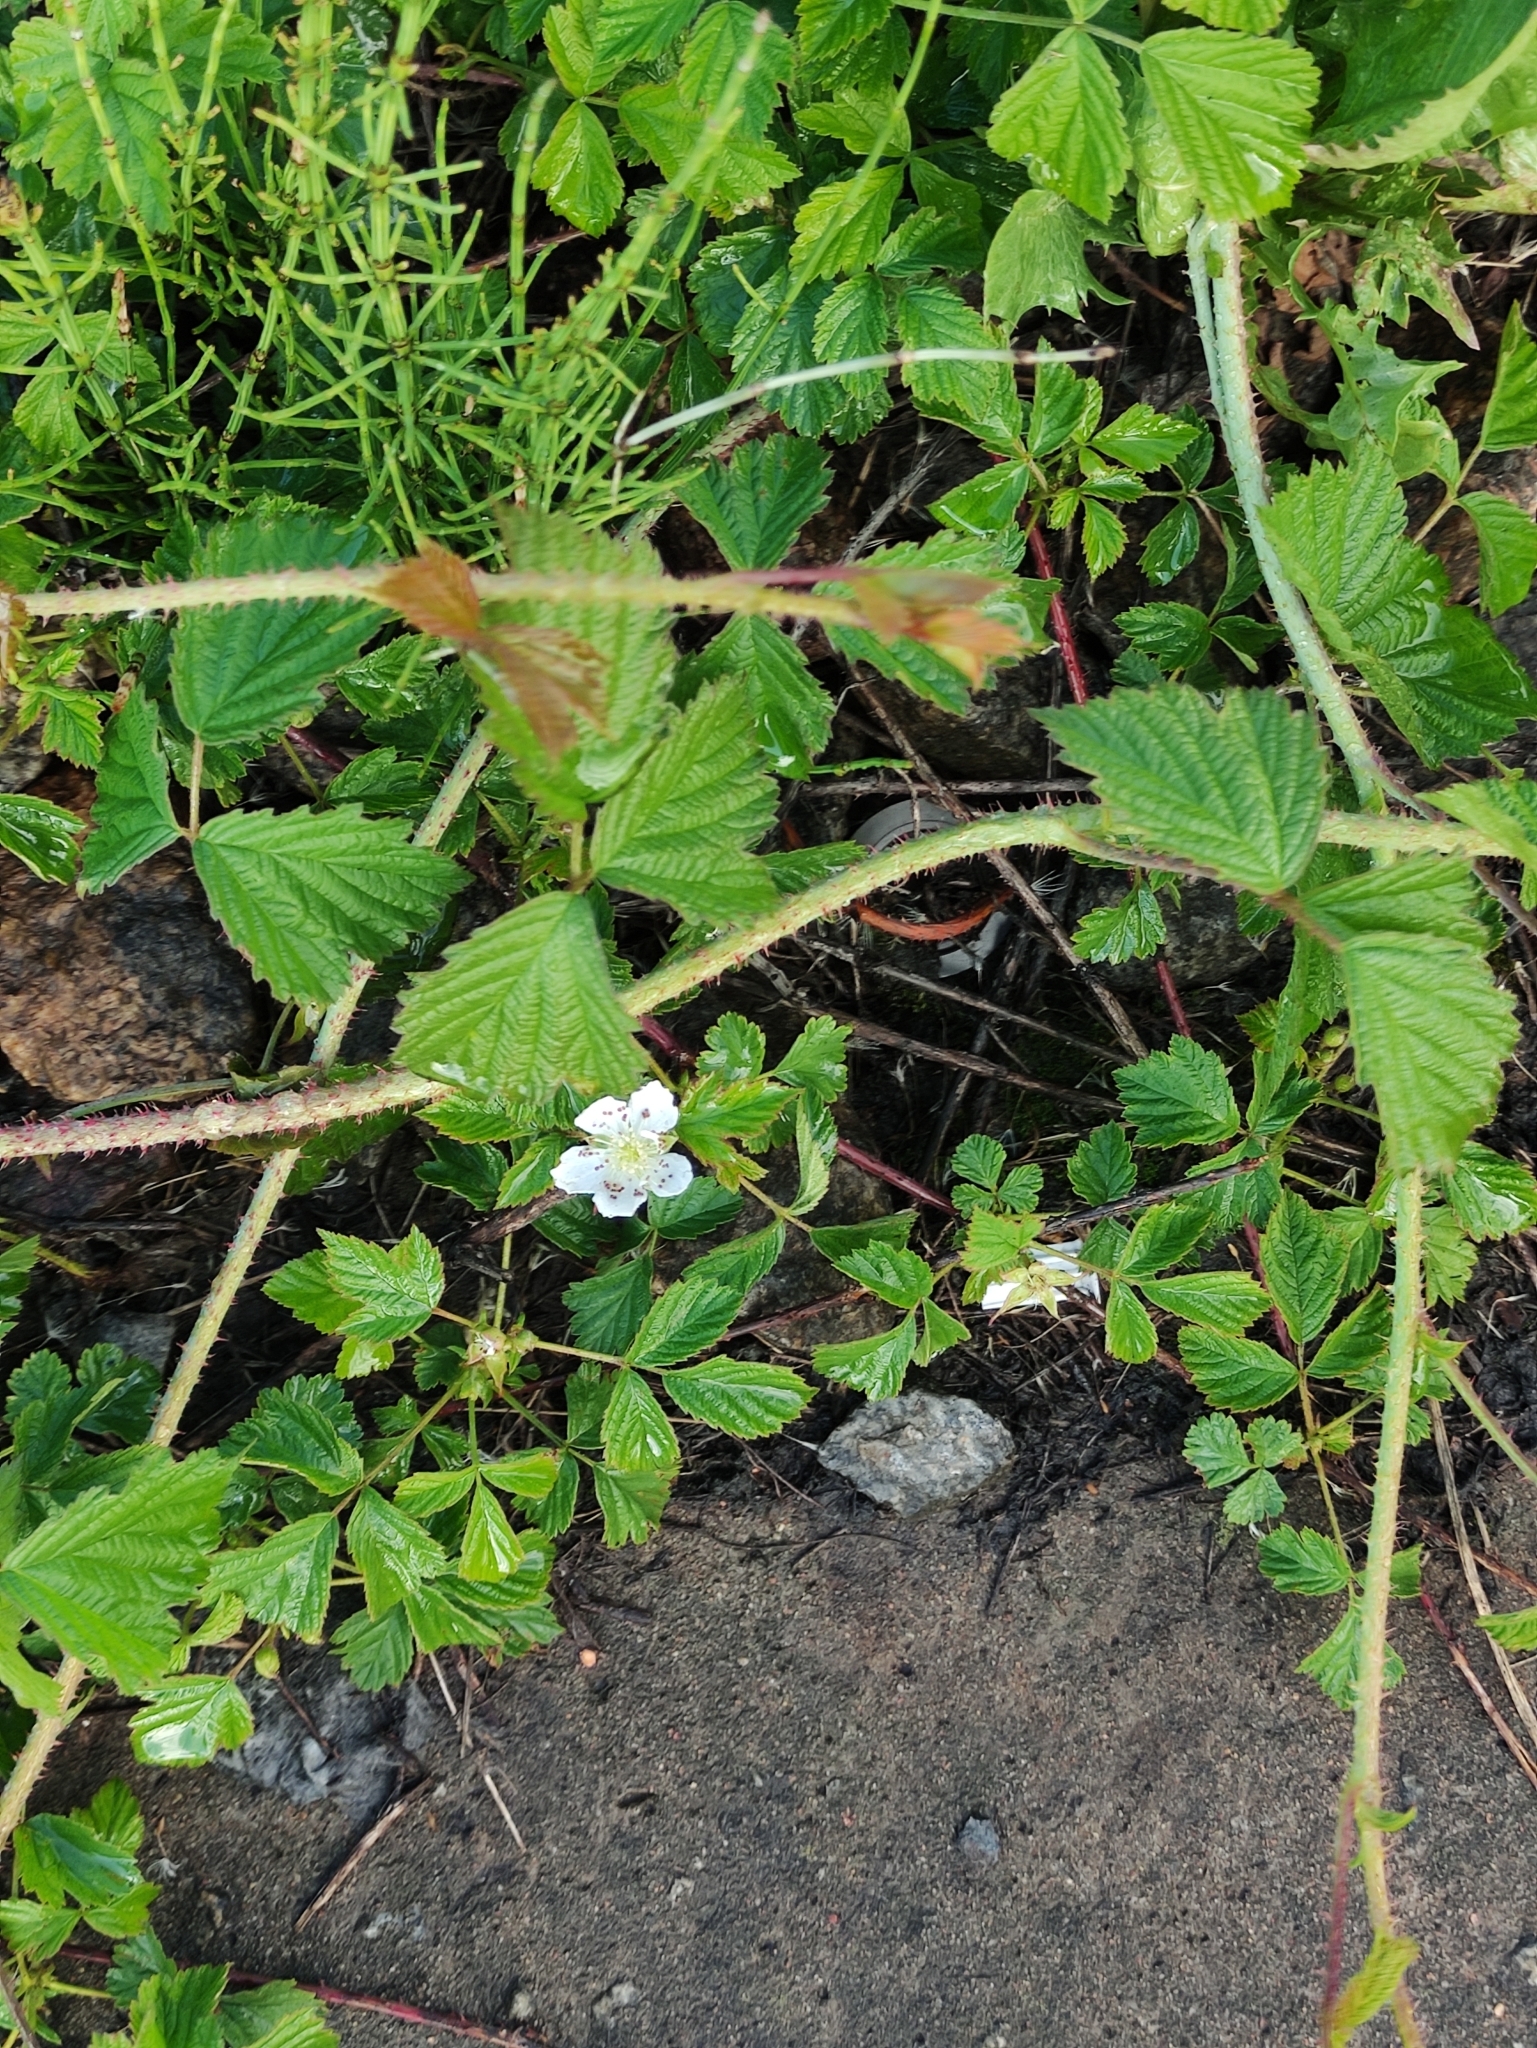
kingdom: Plantae
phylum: Tracheophyta
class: Magnoliopsida
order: Rosales
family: Rosaceae
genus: Rubus
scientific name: Rubus caesius
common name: Dewberry
